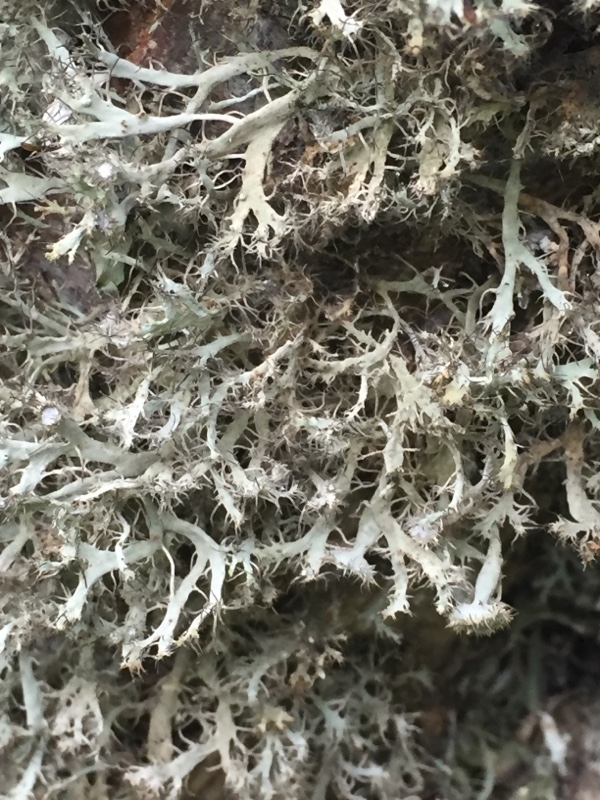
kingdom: Fungi
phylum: Ascomycota
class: Lecanoromycetes
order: Caliciales
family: Physciaceae
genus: Anaptychia
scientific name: Anaptychia ciliaris
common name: Great ciliated lichen
